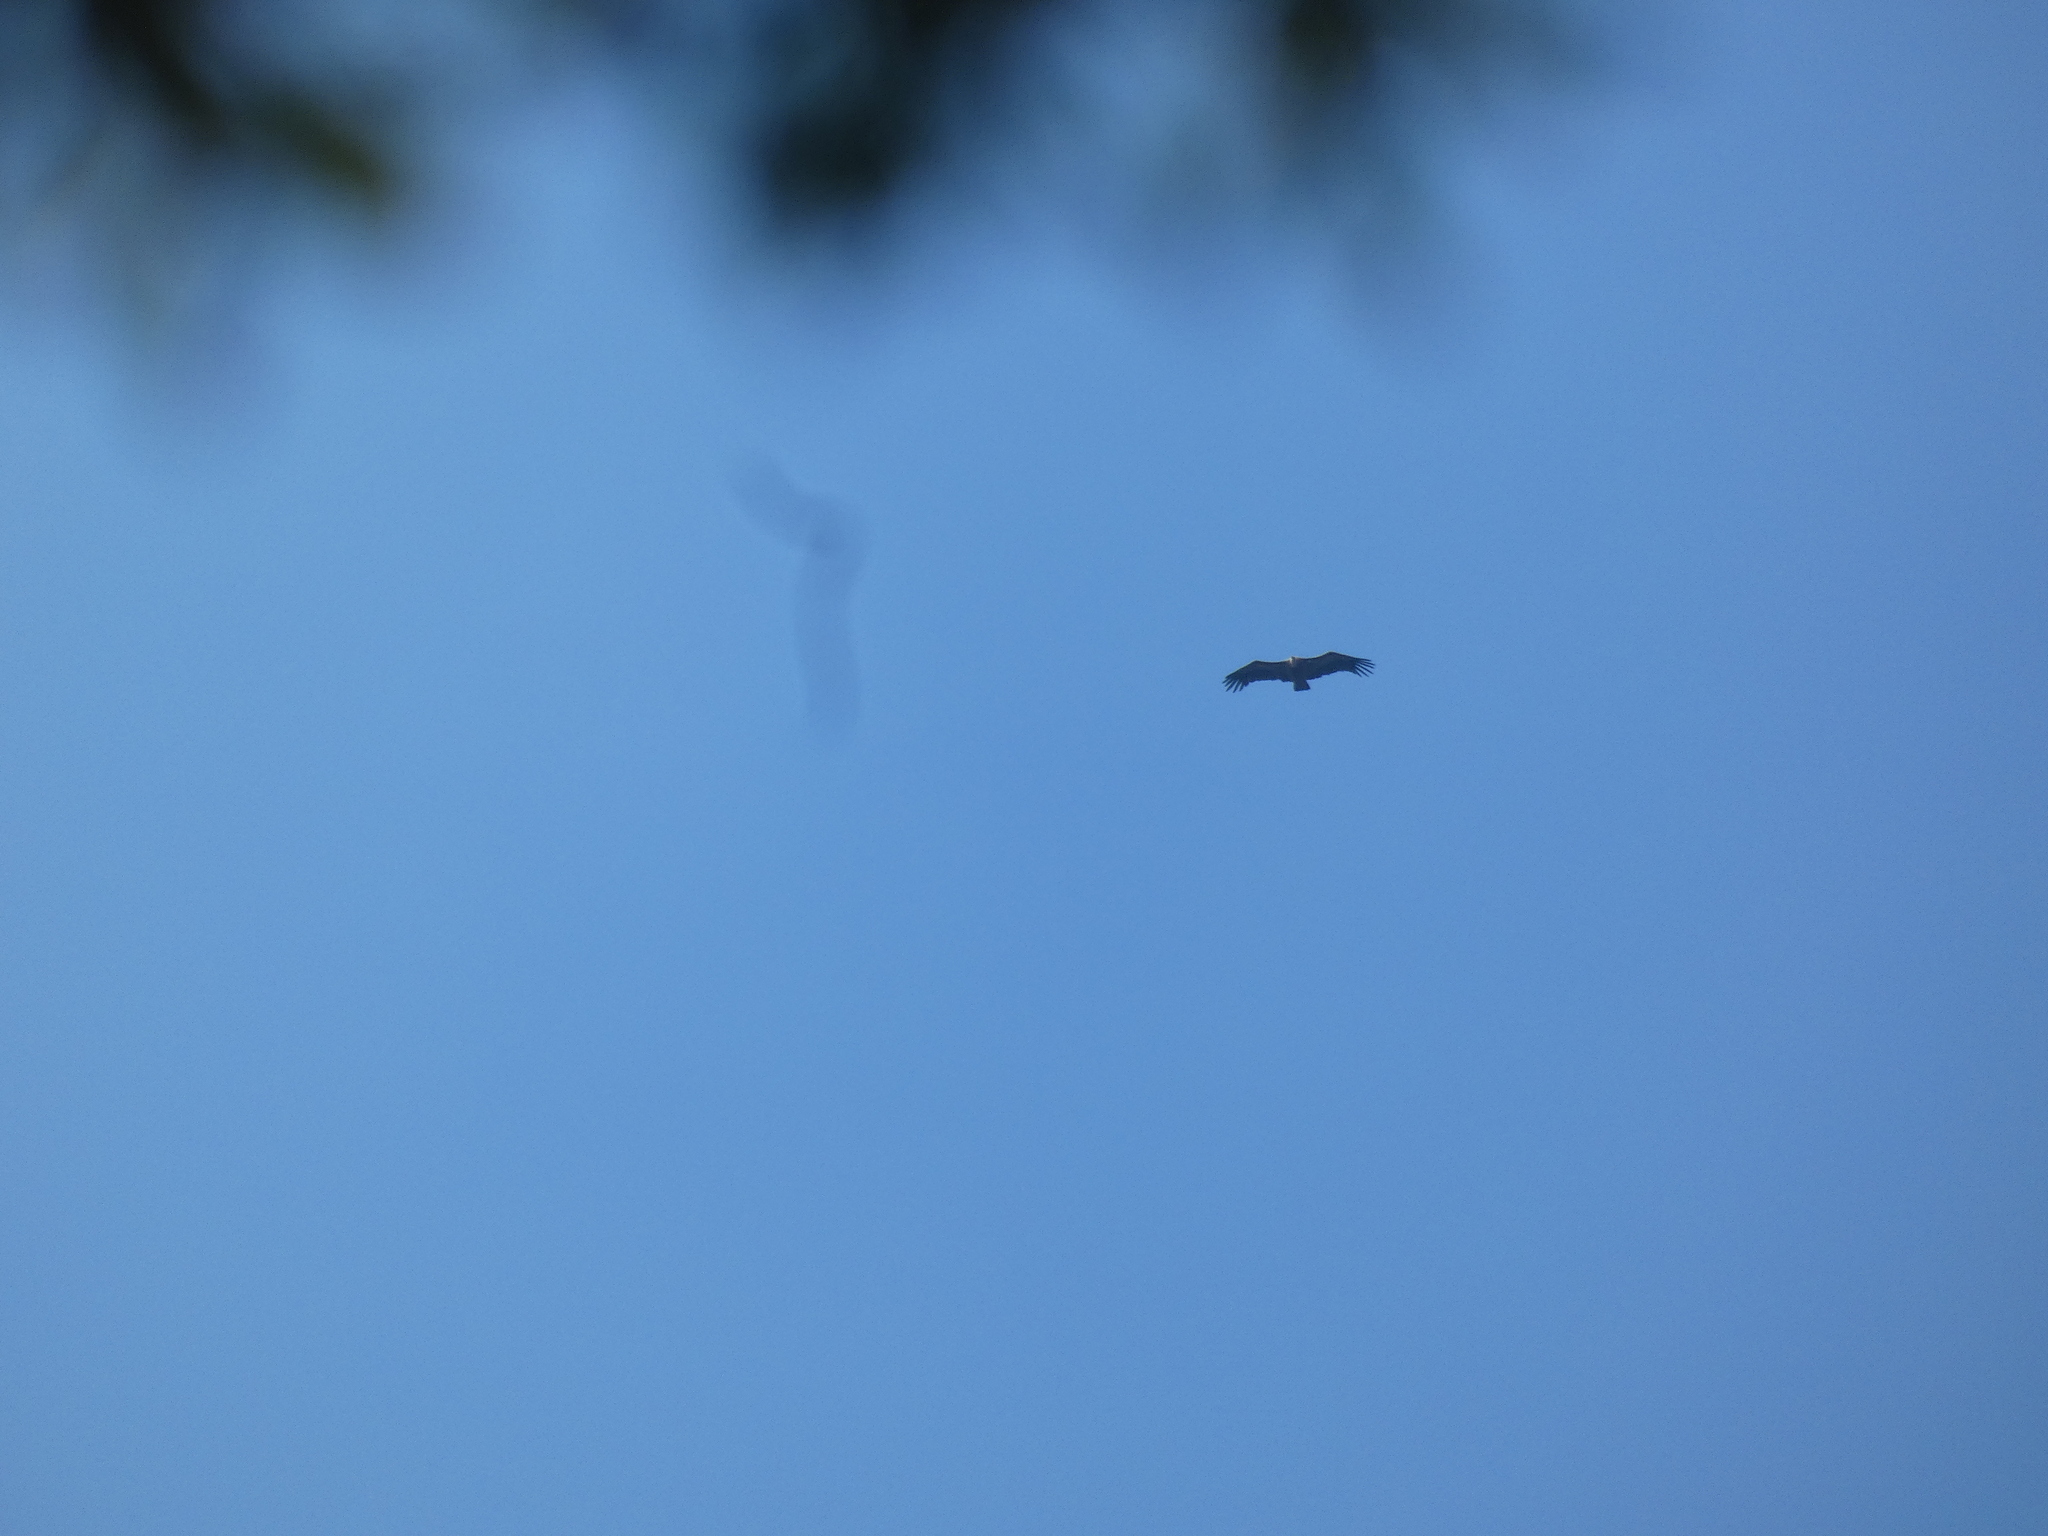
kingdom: Animalia
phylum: Chordata
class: Aves
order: Accipitriformes
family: Accipitridae
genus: Gyps
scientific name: Gyps fulvus
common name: Griffon vulture
